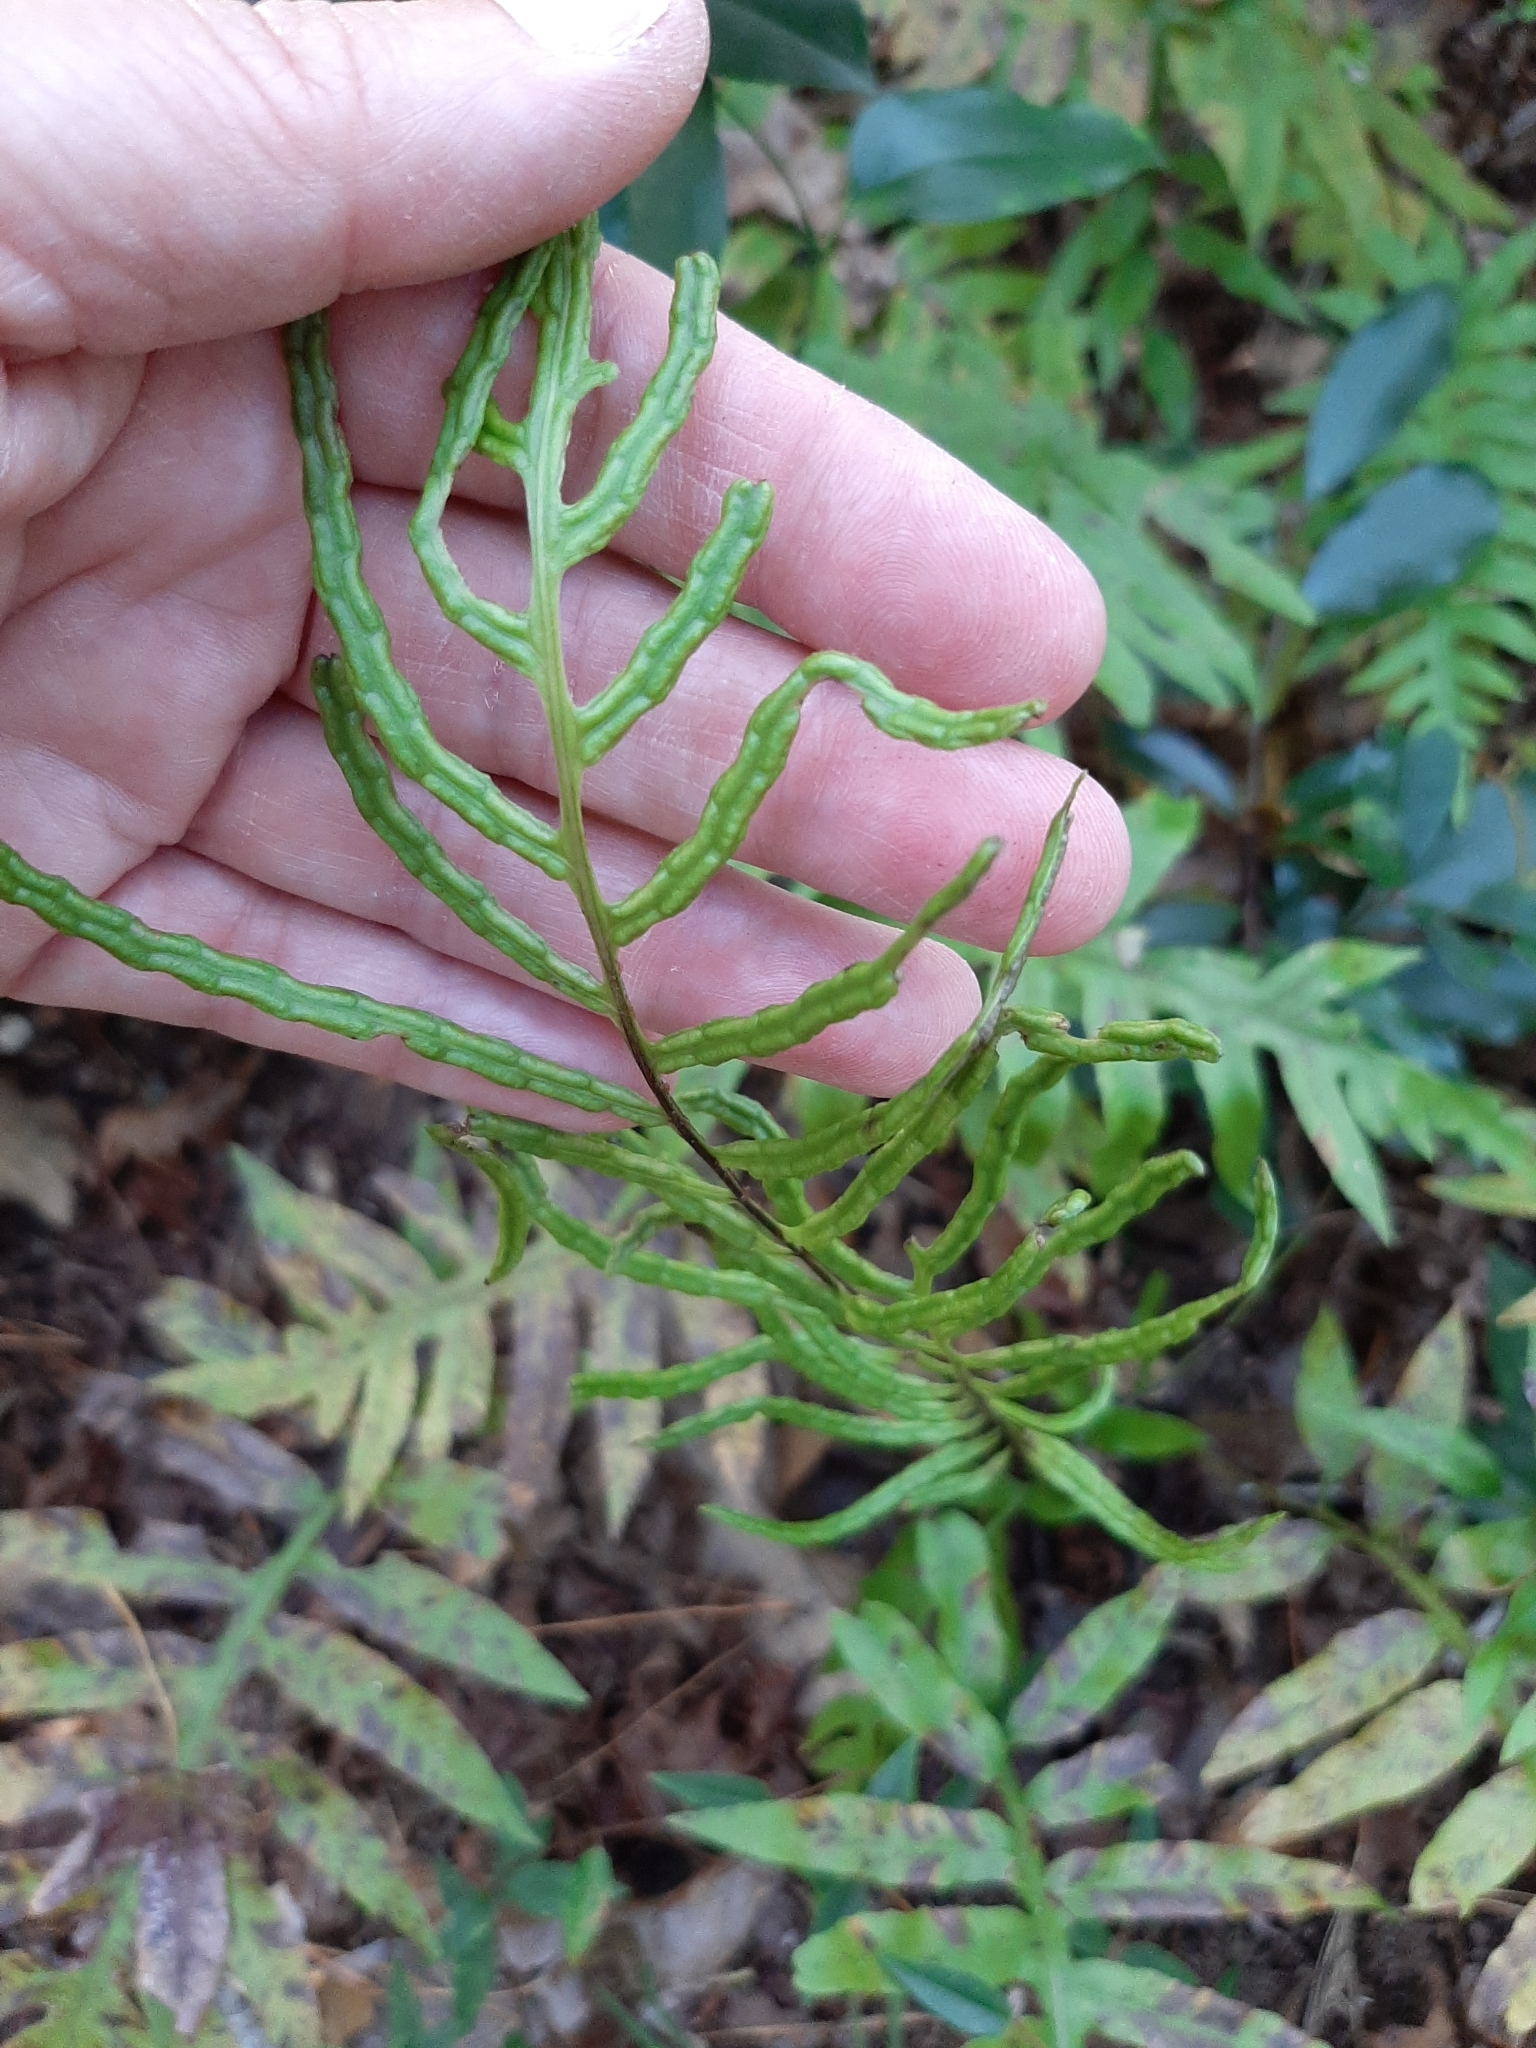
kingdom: Plantae
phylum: Tracheophyta
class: Polypodiopsida
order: Polypodiales
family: Blechnaceae
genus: Lorinseria
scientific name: Lorinseria areolata
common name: Dwarf chain fern
